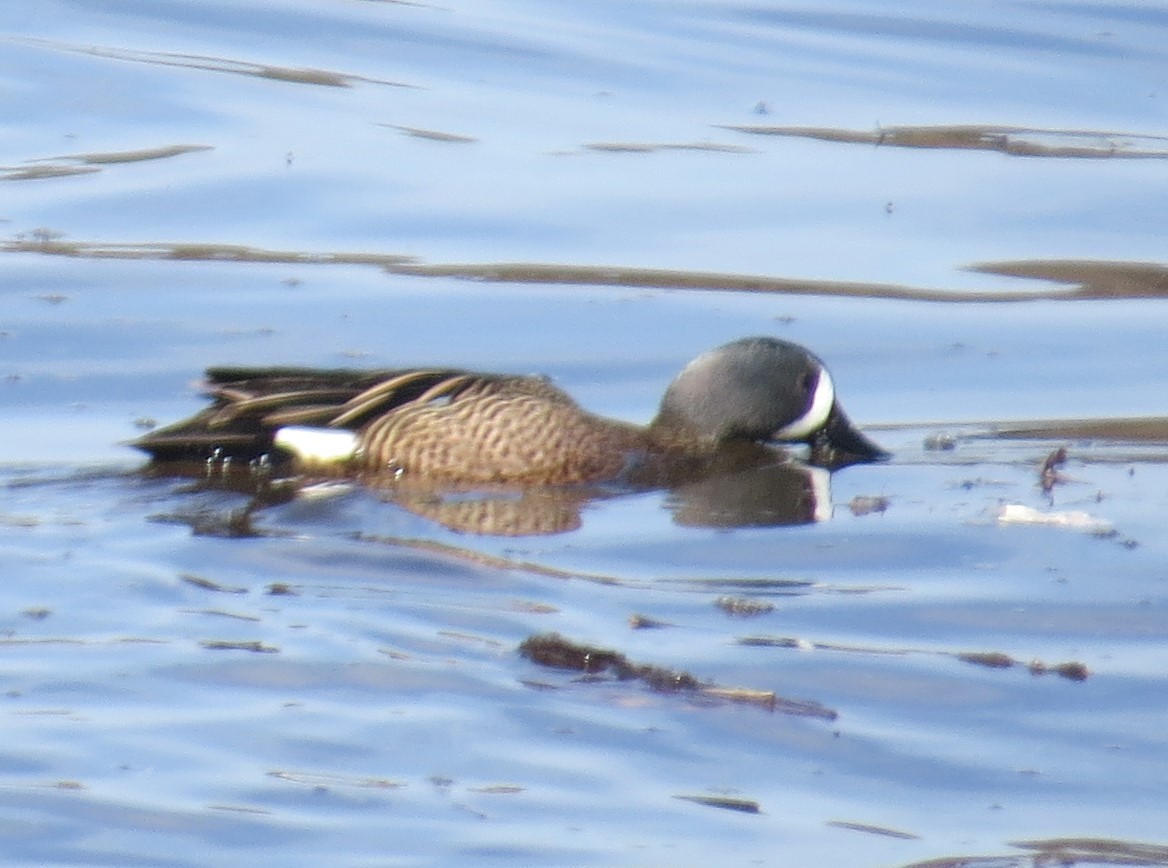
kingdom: Animalia
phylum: Chordata
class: Aves
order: Anseriformes
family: Anatidae
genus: Spatula
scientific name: Spatula discors
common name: Blue-winged teal
